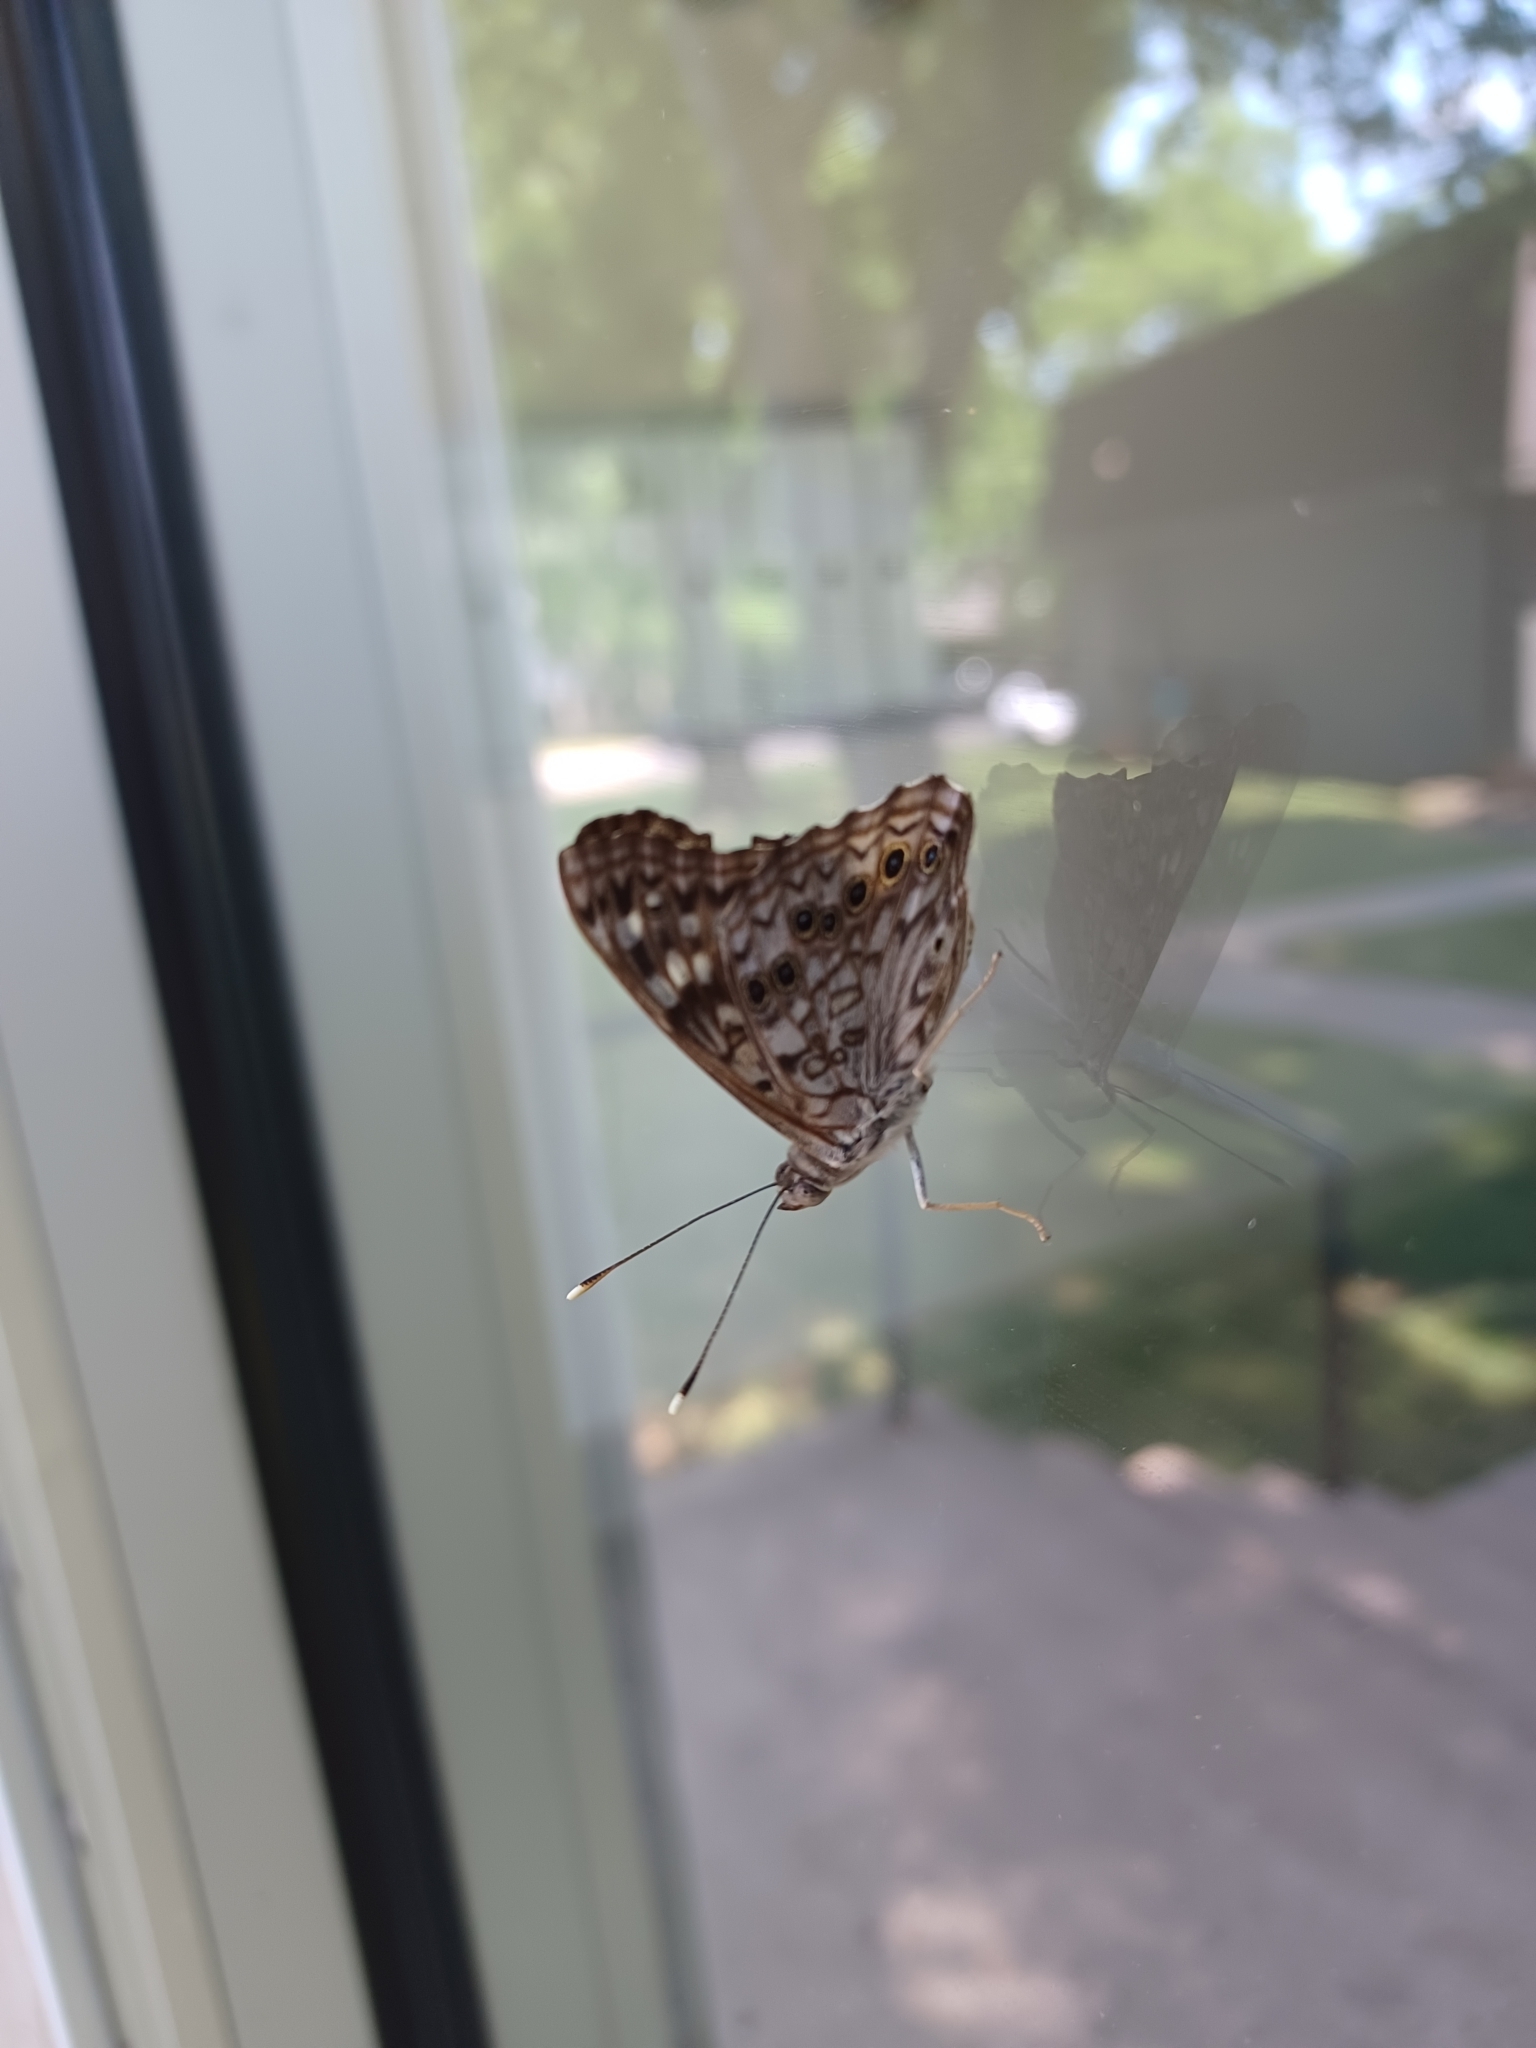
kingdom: Animalia
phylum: Arthropoda
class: Insecta
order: Lepidoptera
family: Nymphalidae
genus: Asterocampa
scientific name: Asterocampa celtis
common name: Hackberry emperor
